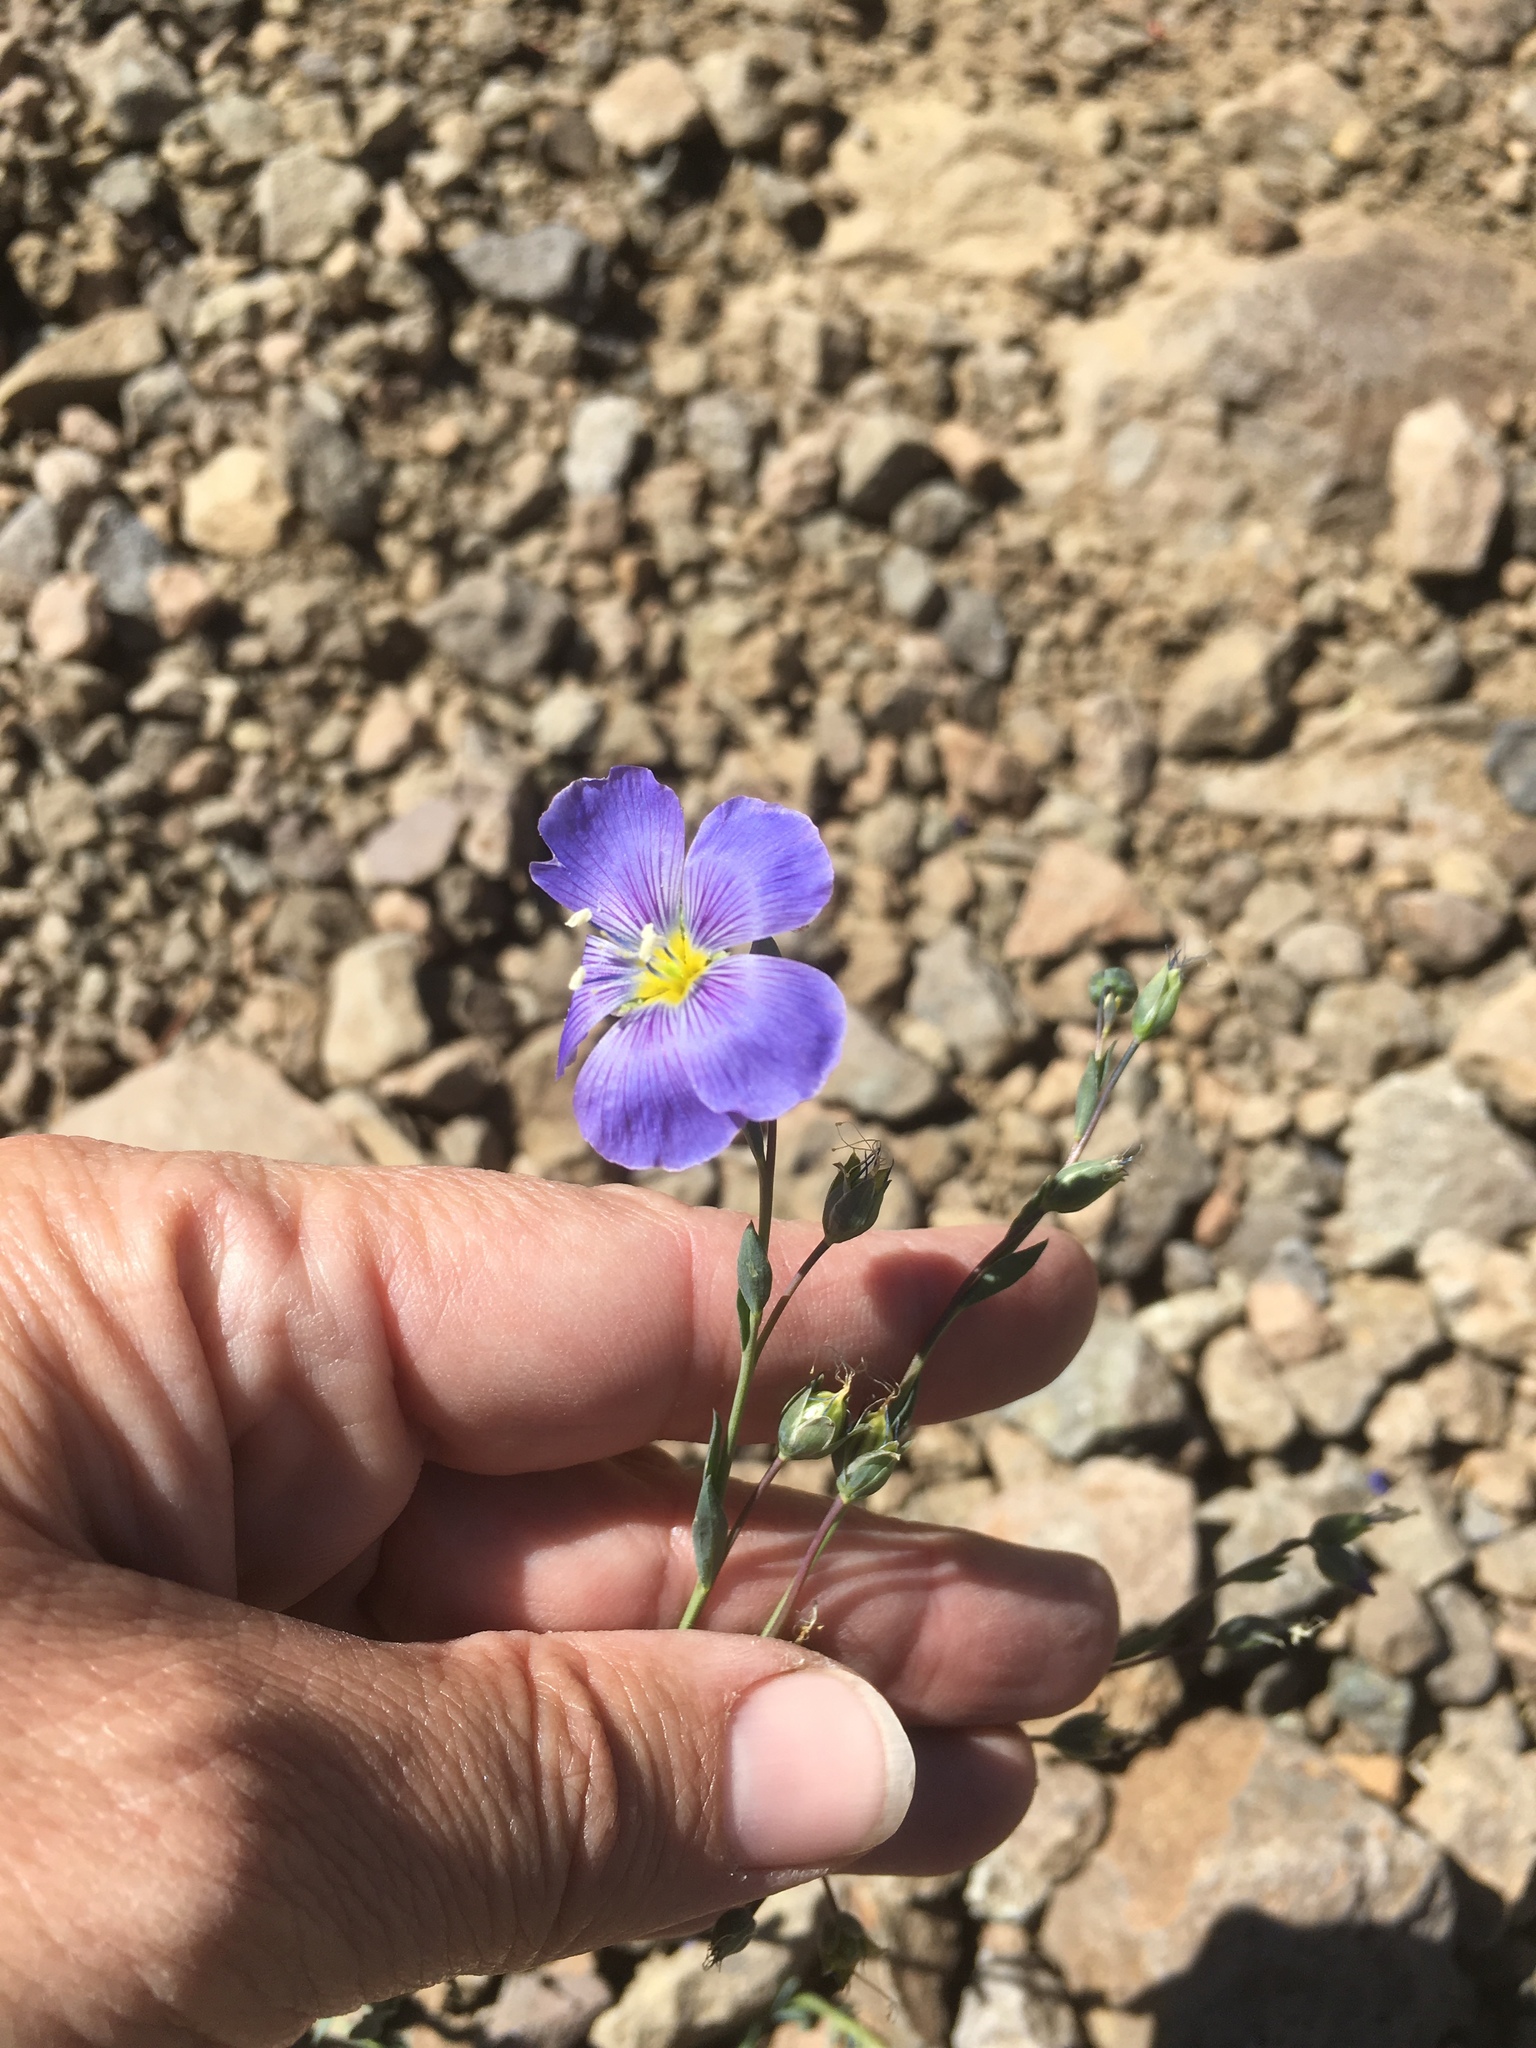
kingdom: Plantae
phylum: Tracheophyta
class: Magnoliopsida
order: Malpighiales
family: Linaceae
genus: Linum
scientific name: Linum lewisii
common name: Prairie flax
